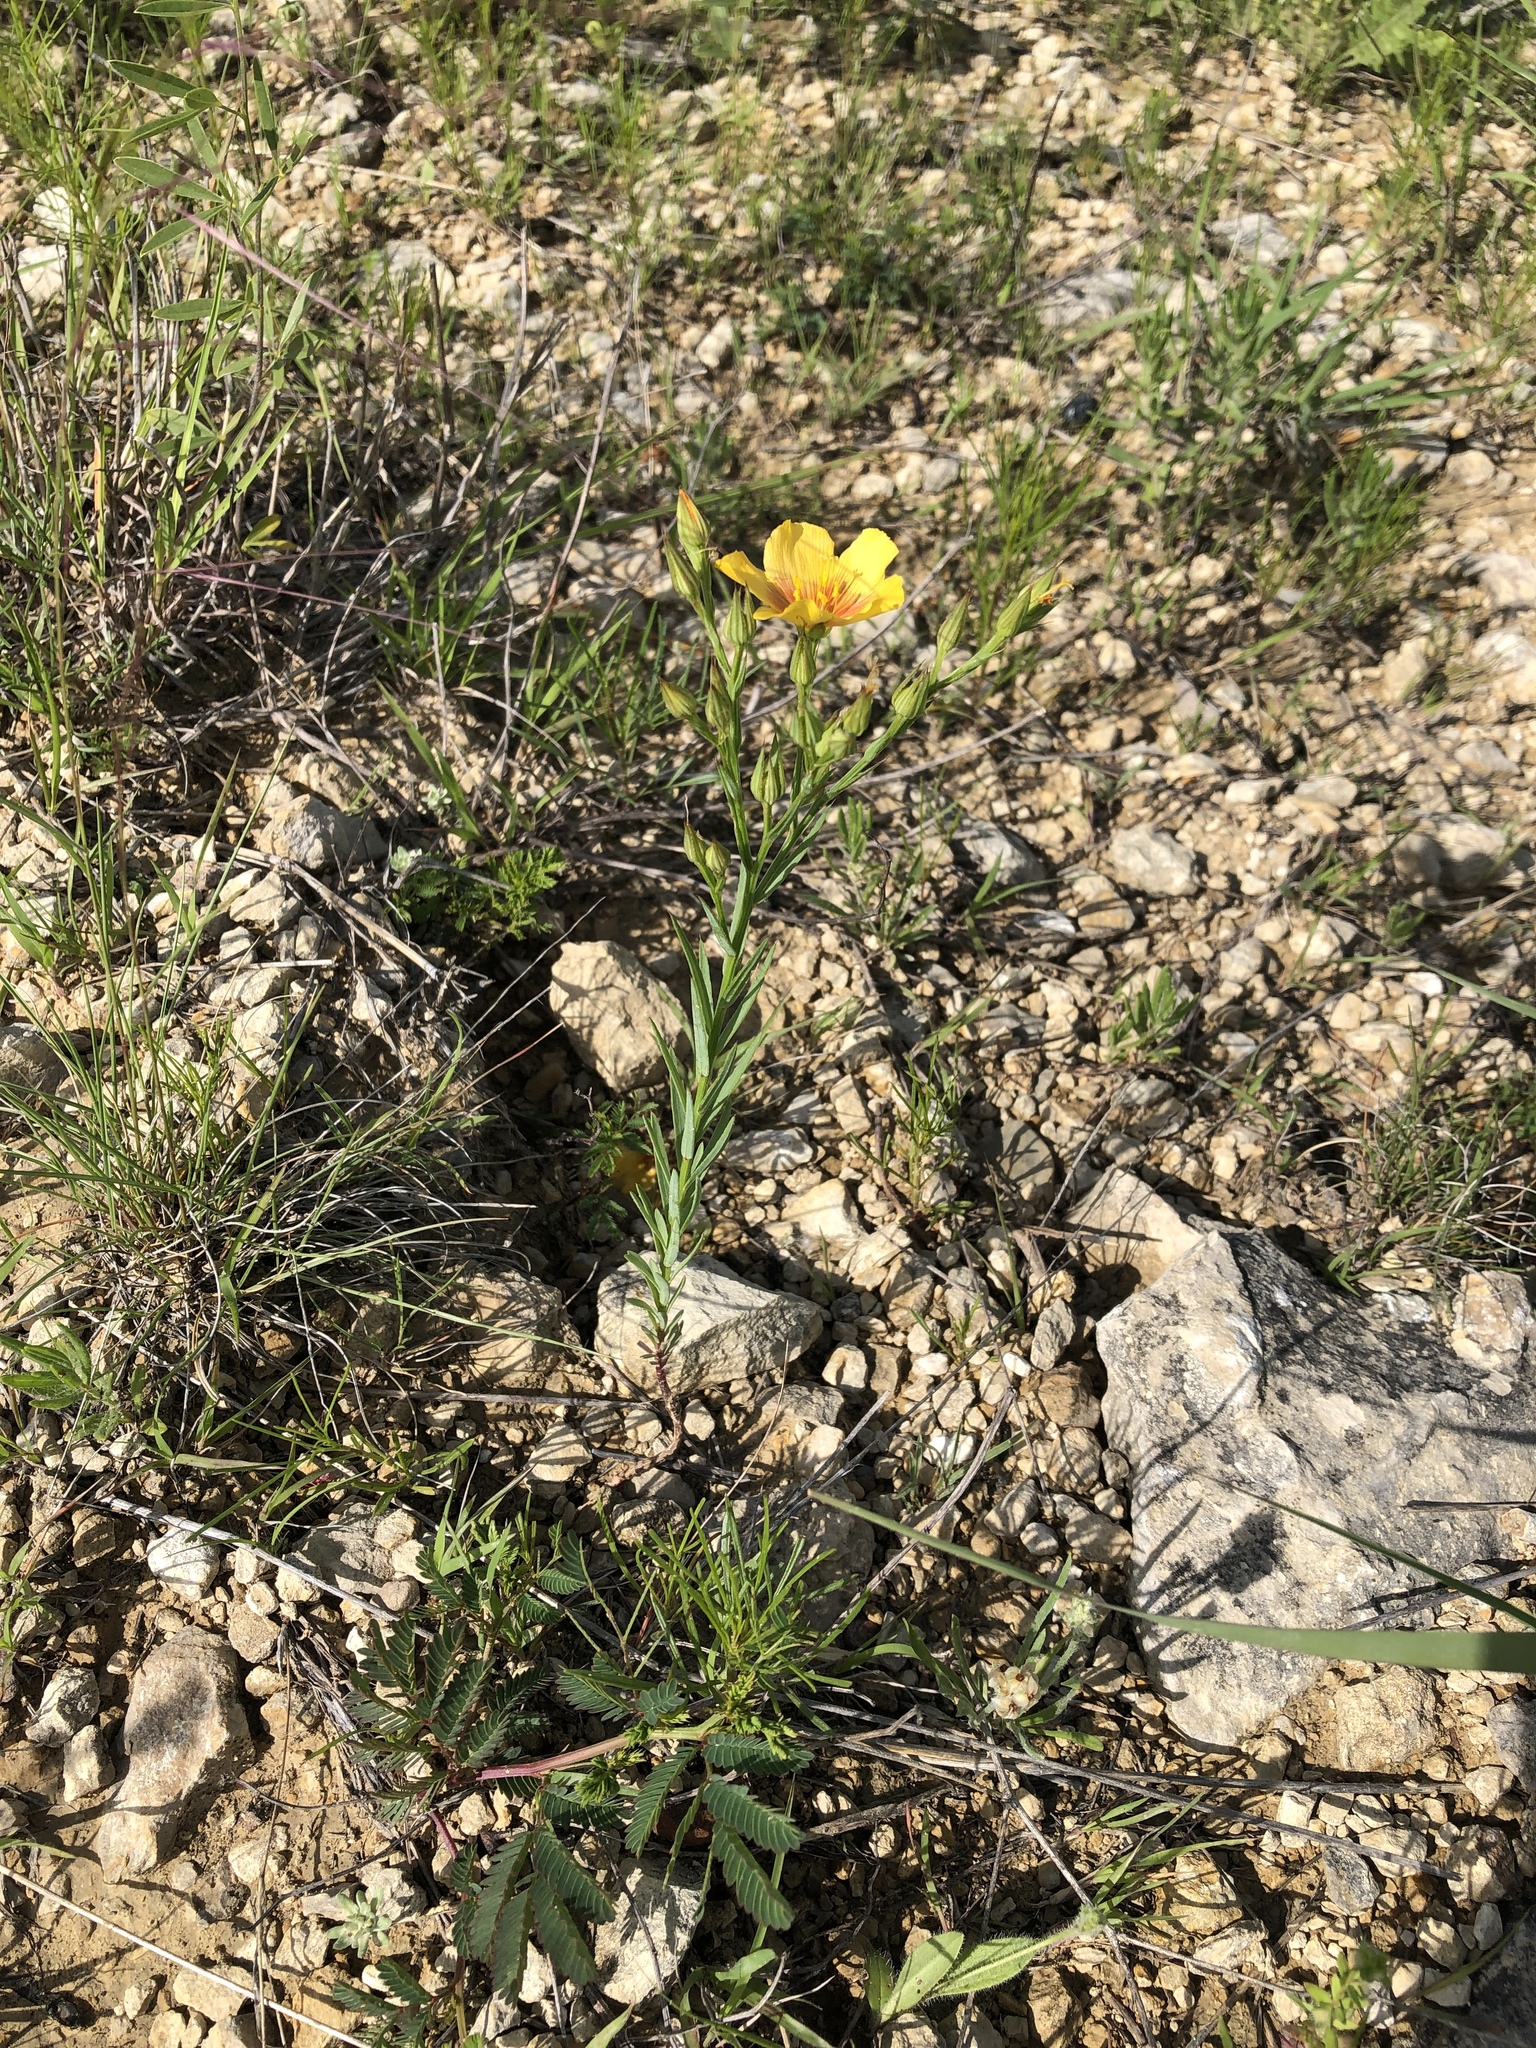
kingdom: Plantae
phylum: Tracheophyta
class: Magnoliopsida
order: Malpighiales
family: Linaceae
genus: Linum
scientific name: Linum rigidum
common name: Stiff-stem flax
